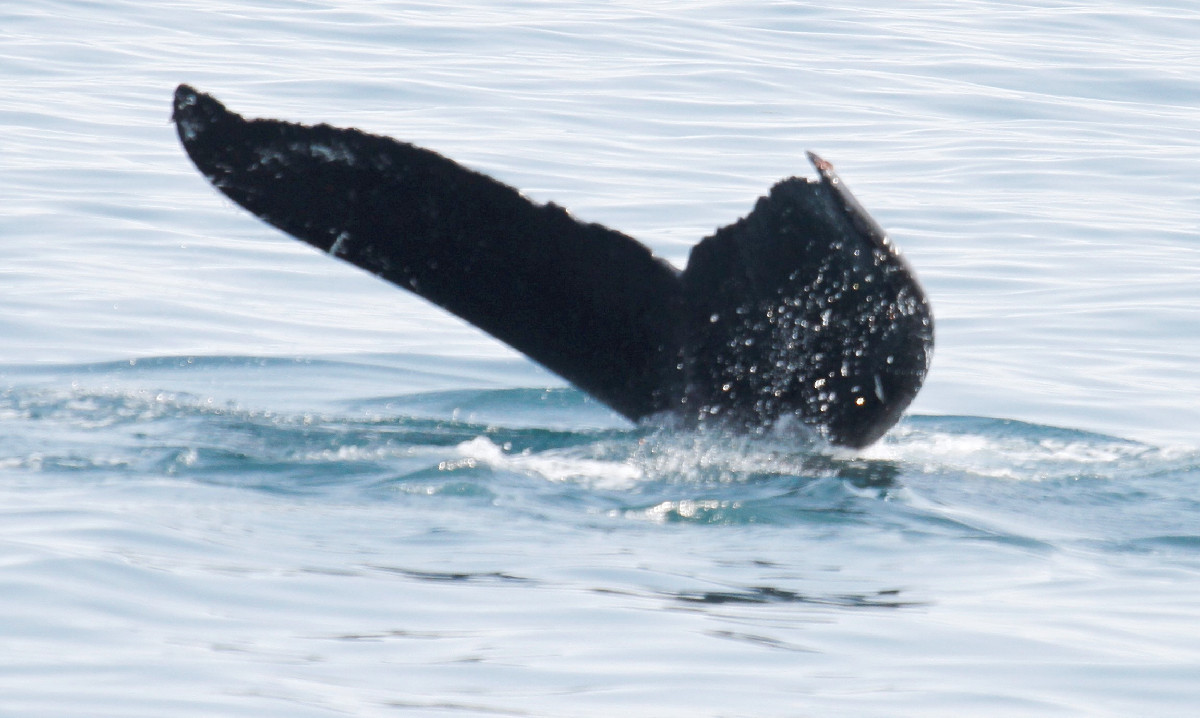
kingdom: Animalia
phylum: Chordata
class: Mammalia
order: Cetacea
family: Balaenopteridae
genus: Megaptera
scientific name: Megaptera novaeangliae
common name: Humpback whale
